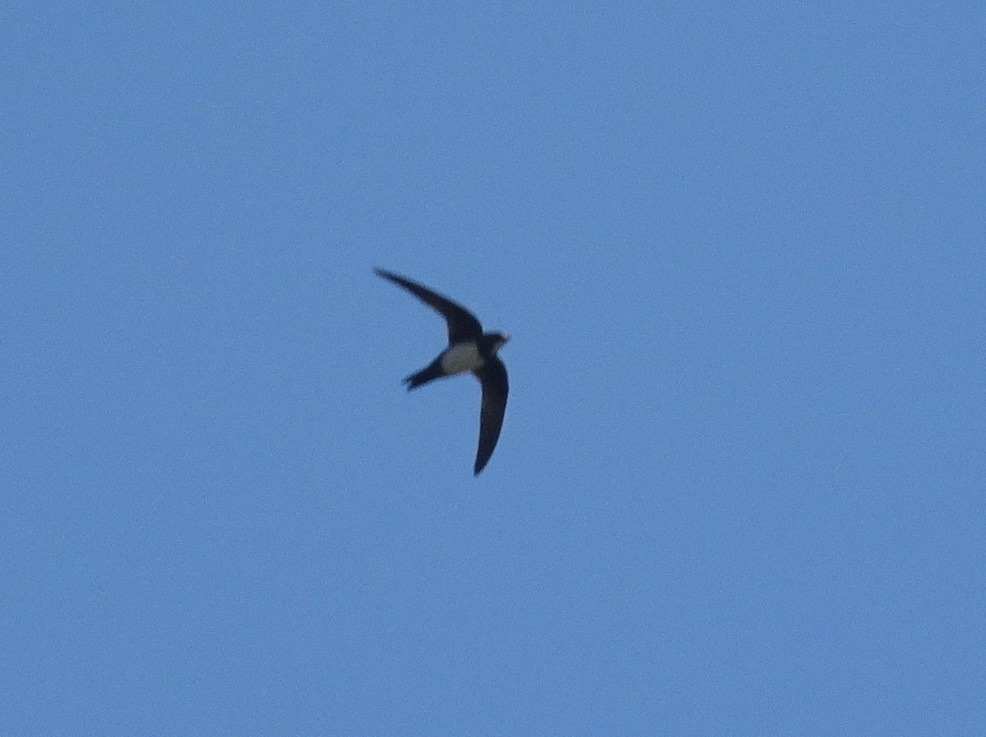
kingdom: Animalia
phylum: Chordata
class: Aves
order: Apodiformes
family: Apodidae
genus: Tachymarptis
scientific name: Tachymarptis melba
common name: Alpine swift
